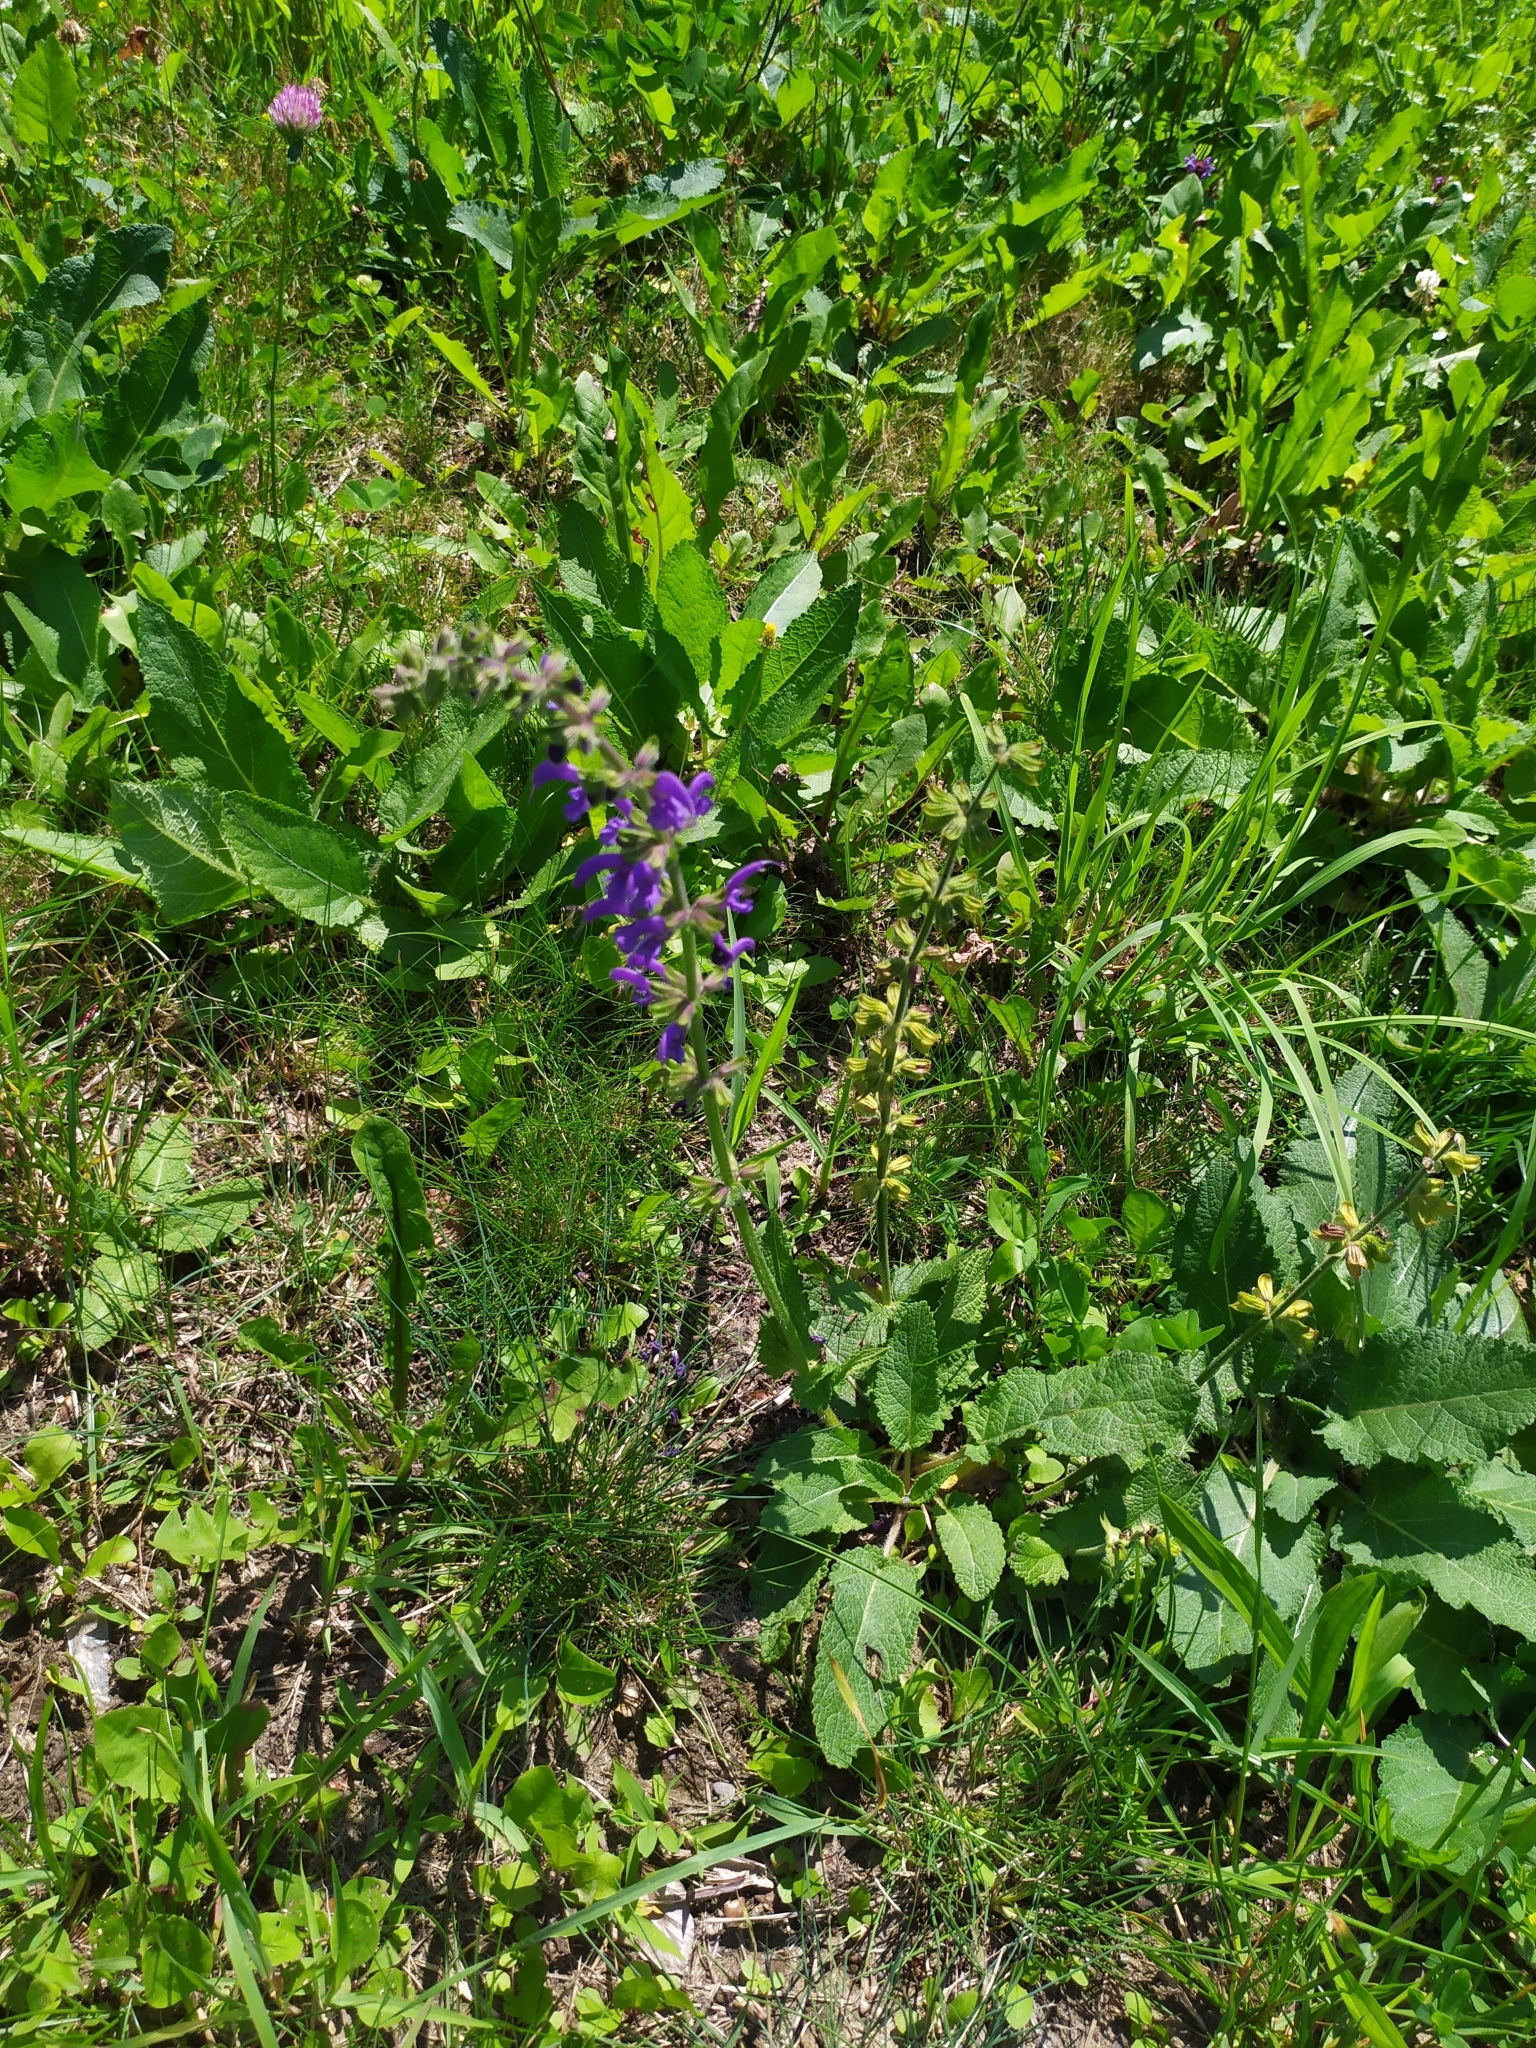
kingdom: Plantae
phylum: Tracheophyta
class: Magnoliopsida
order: Lamiales
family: Lamiaceae
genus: Salvia
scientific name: Salvia pratensis
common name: Meadow sage
